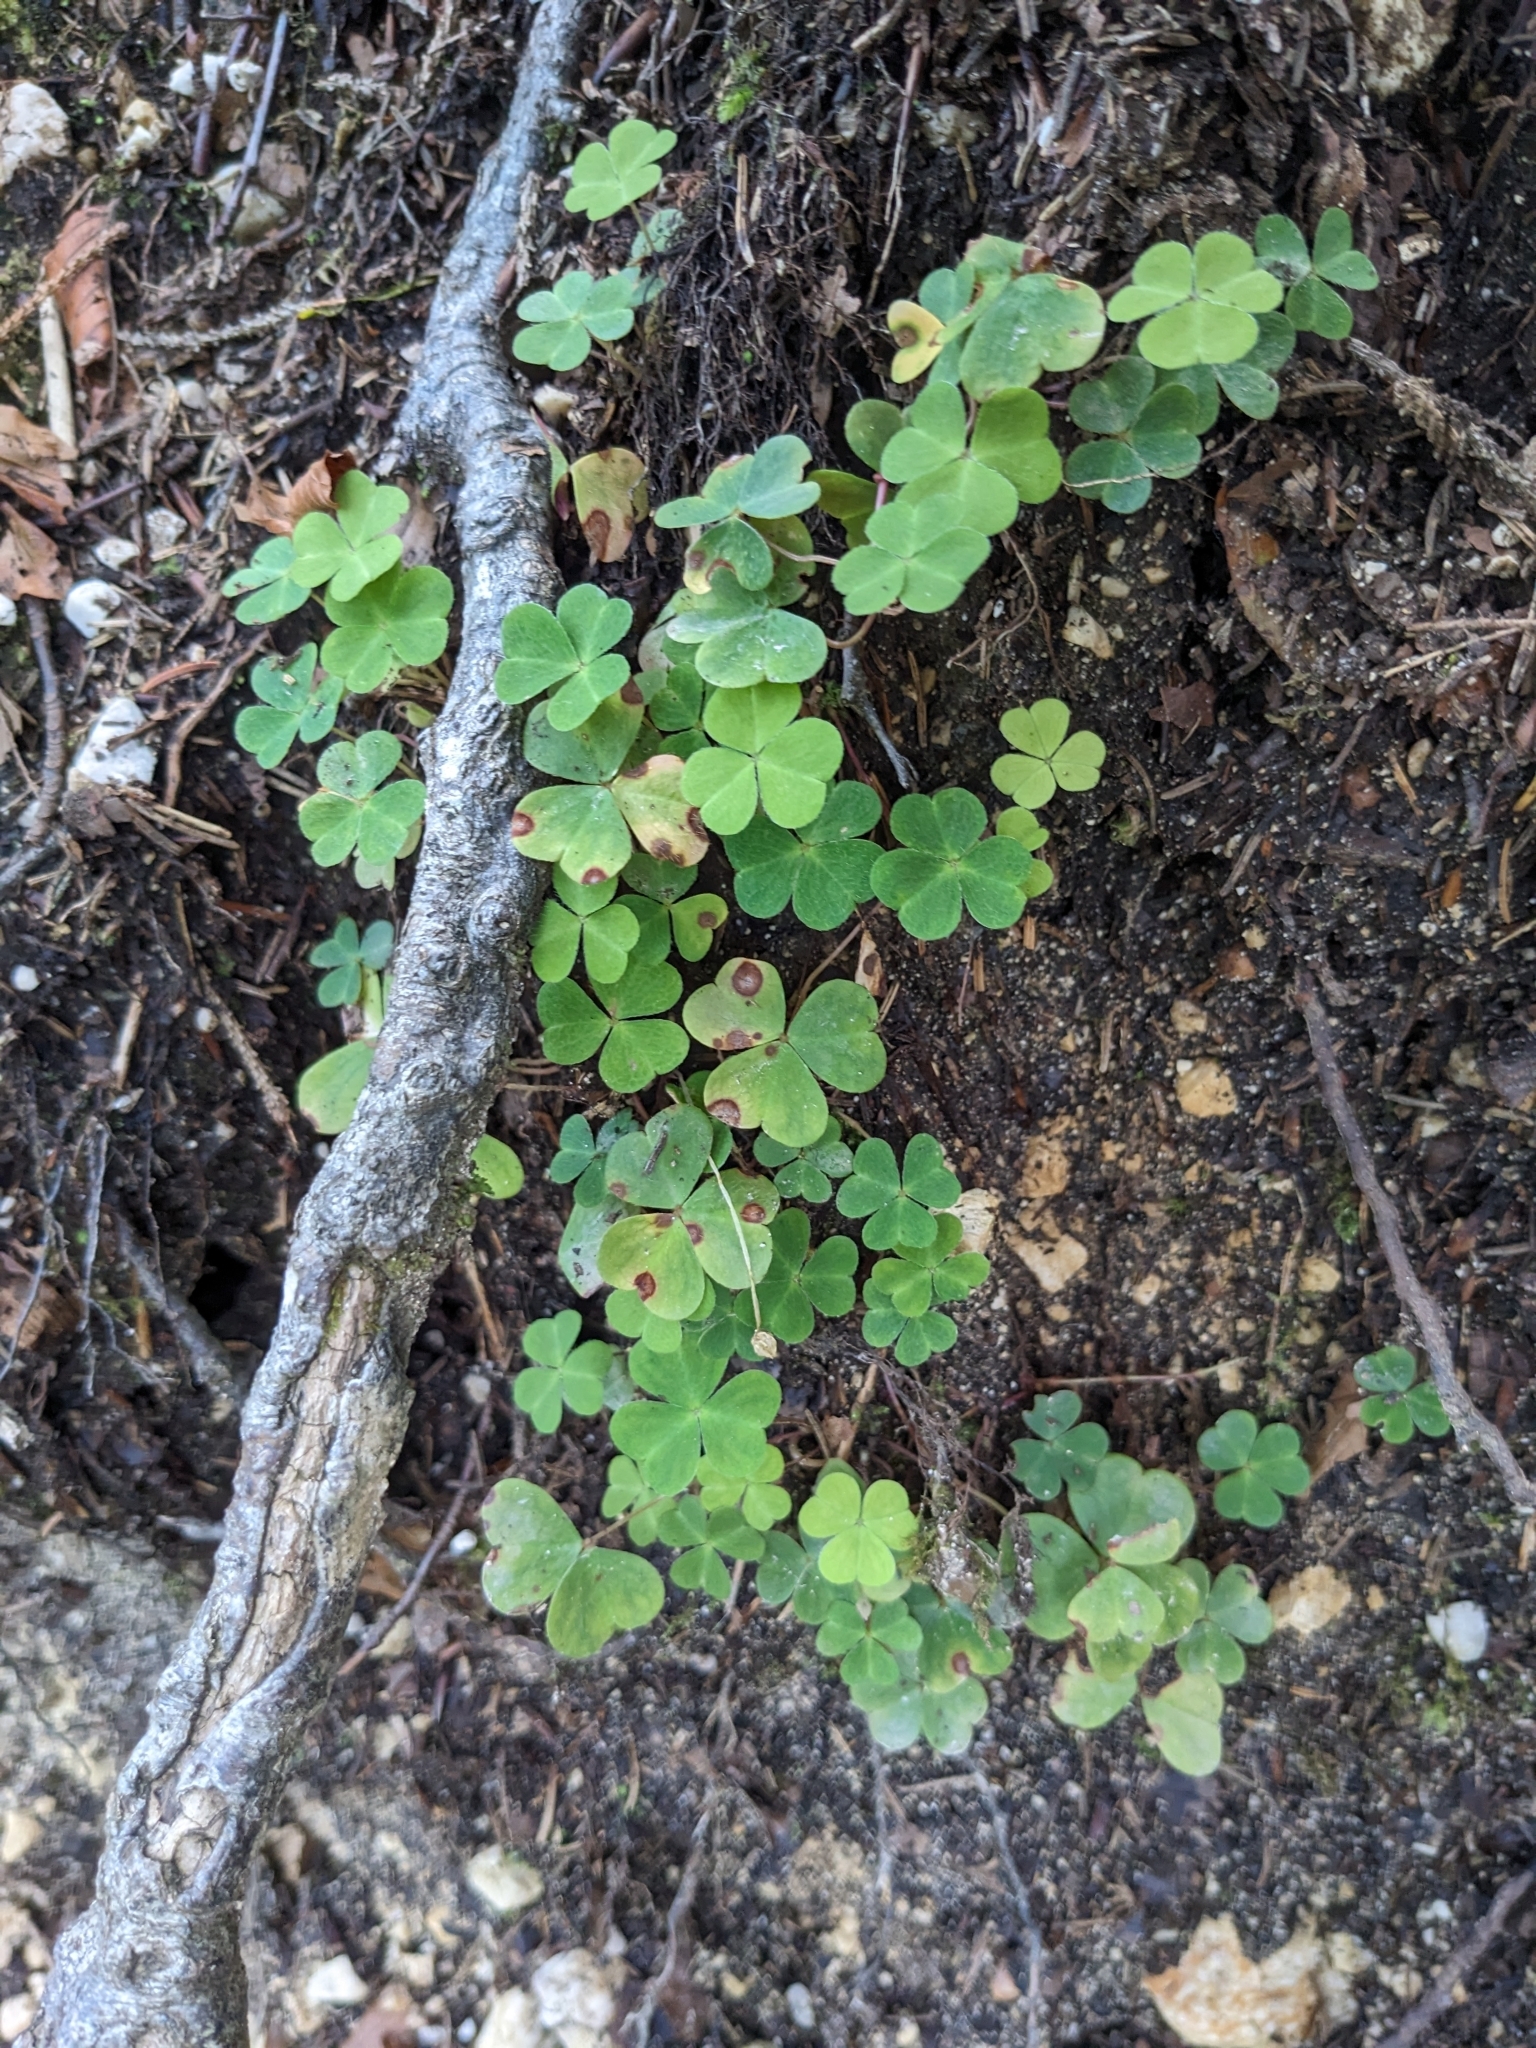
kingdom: Plantae
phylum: Tracheophyta
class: Magnoliopsida
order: Oxalidales
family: Oxalidaceae
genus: Oxalis
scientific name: Oxalis acetosella
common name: Wood-sorrel
